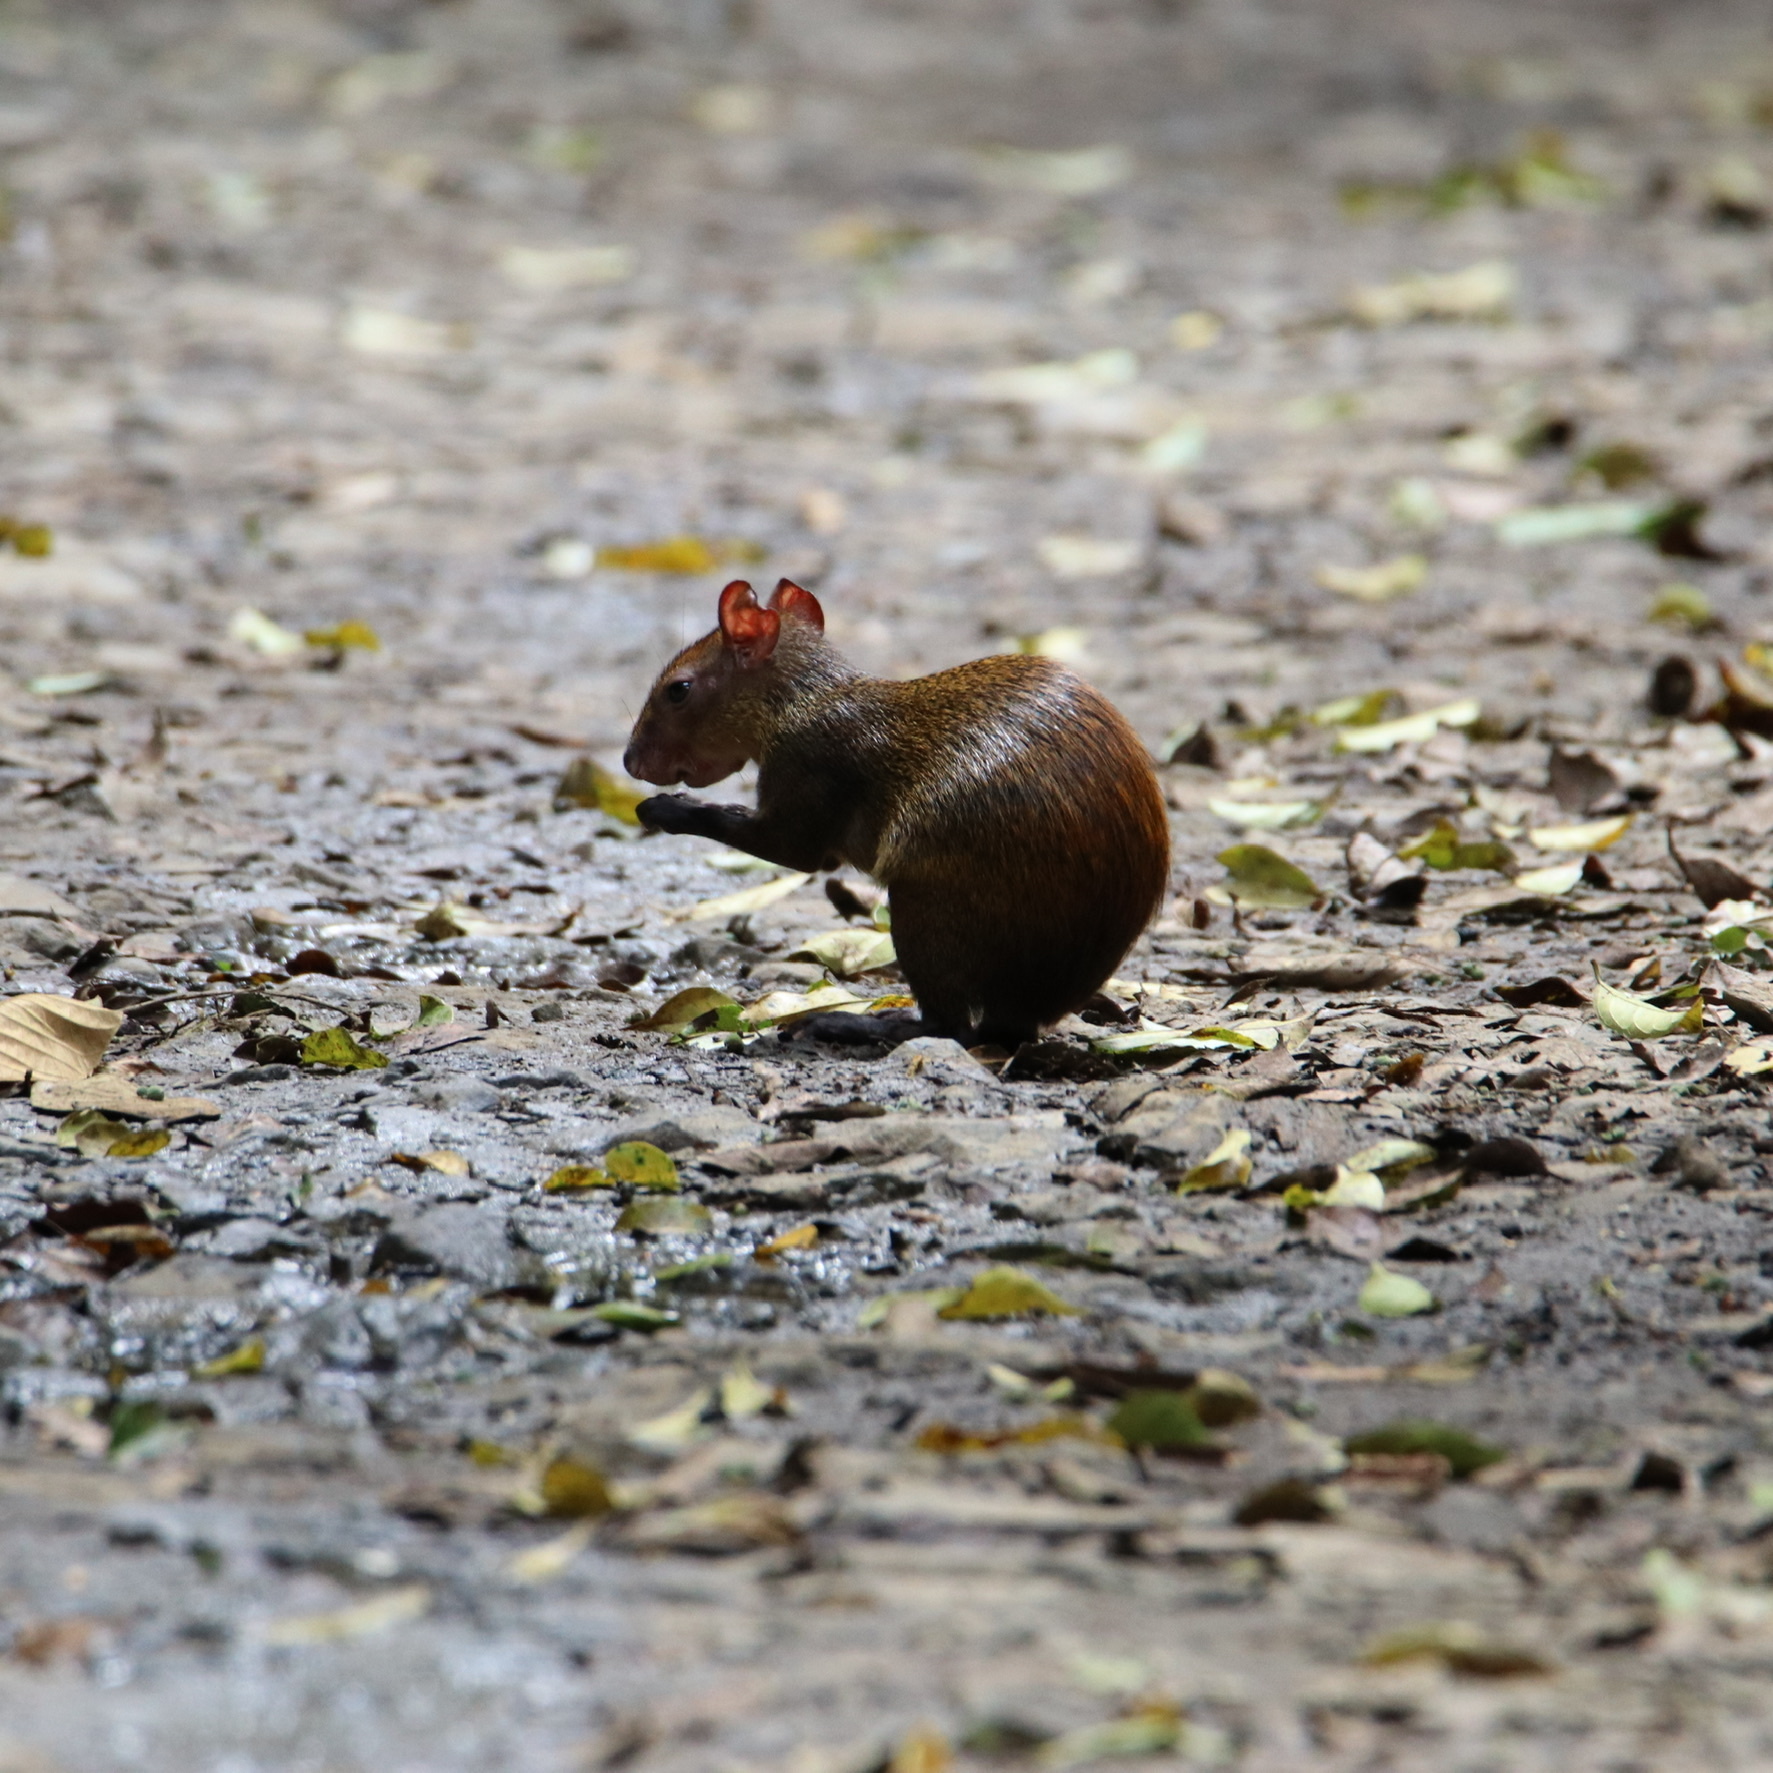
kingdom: Animalia
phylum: Chordata
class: Mammalia
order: Rodentia
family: Dasyproctidae
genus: Dasyprocta
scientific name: Dasyprocta punctata
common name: Central american agouti
